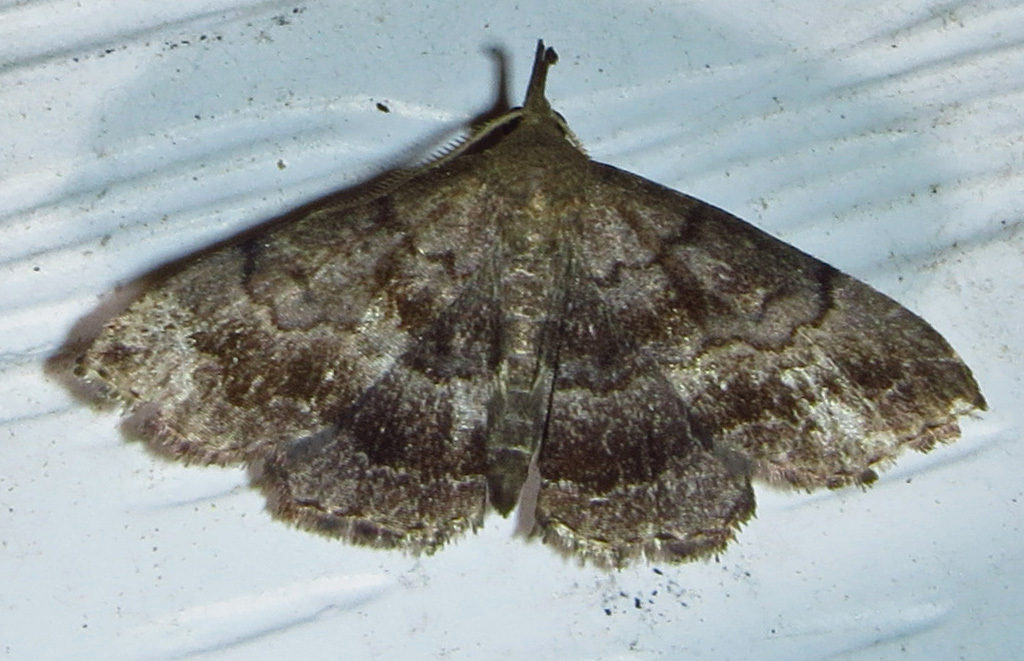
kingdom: Animalia
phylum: Arthropoda
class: Insecta
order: Lepidoptera
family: Erebidae
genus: Phalaenostola
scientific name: Phalaenostola larentioides
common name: Black-banded owlet
